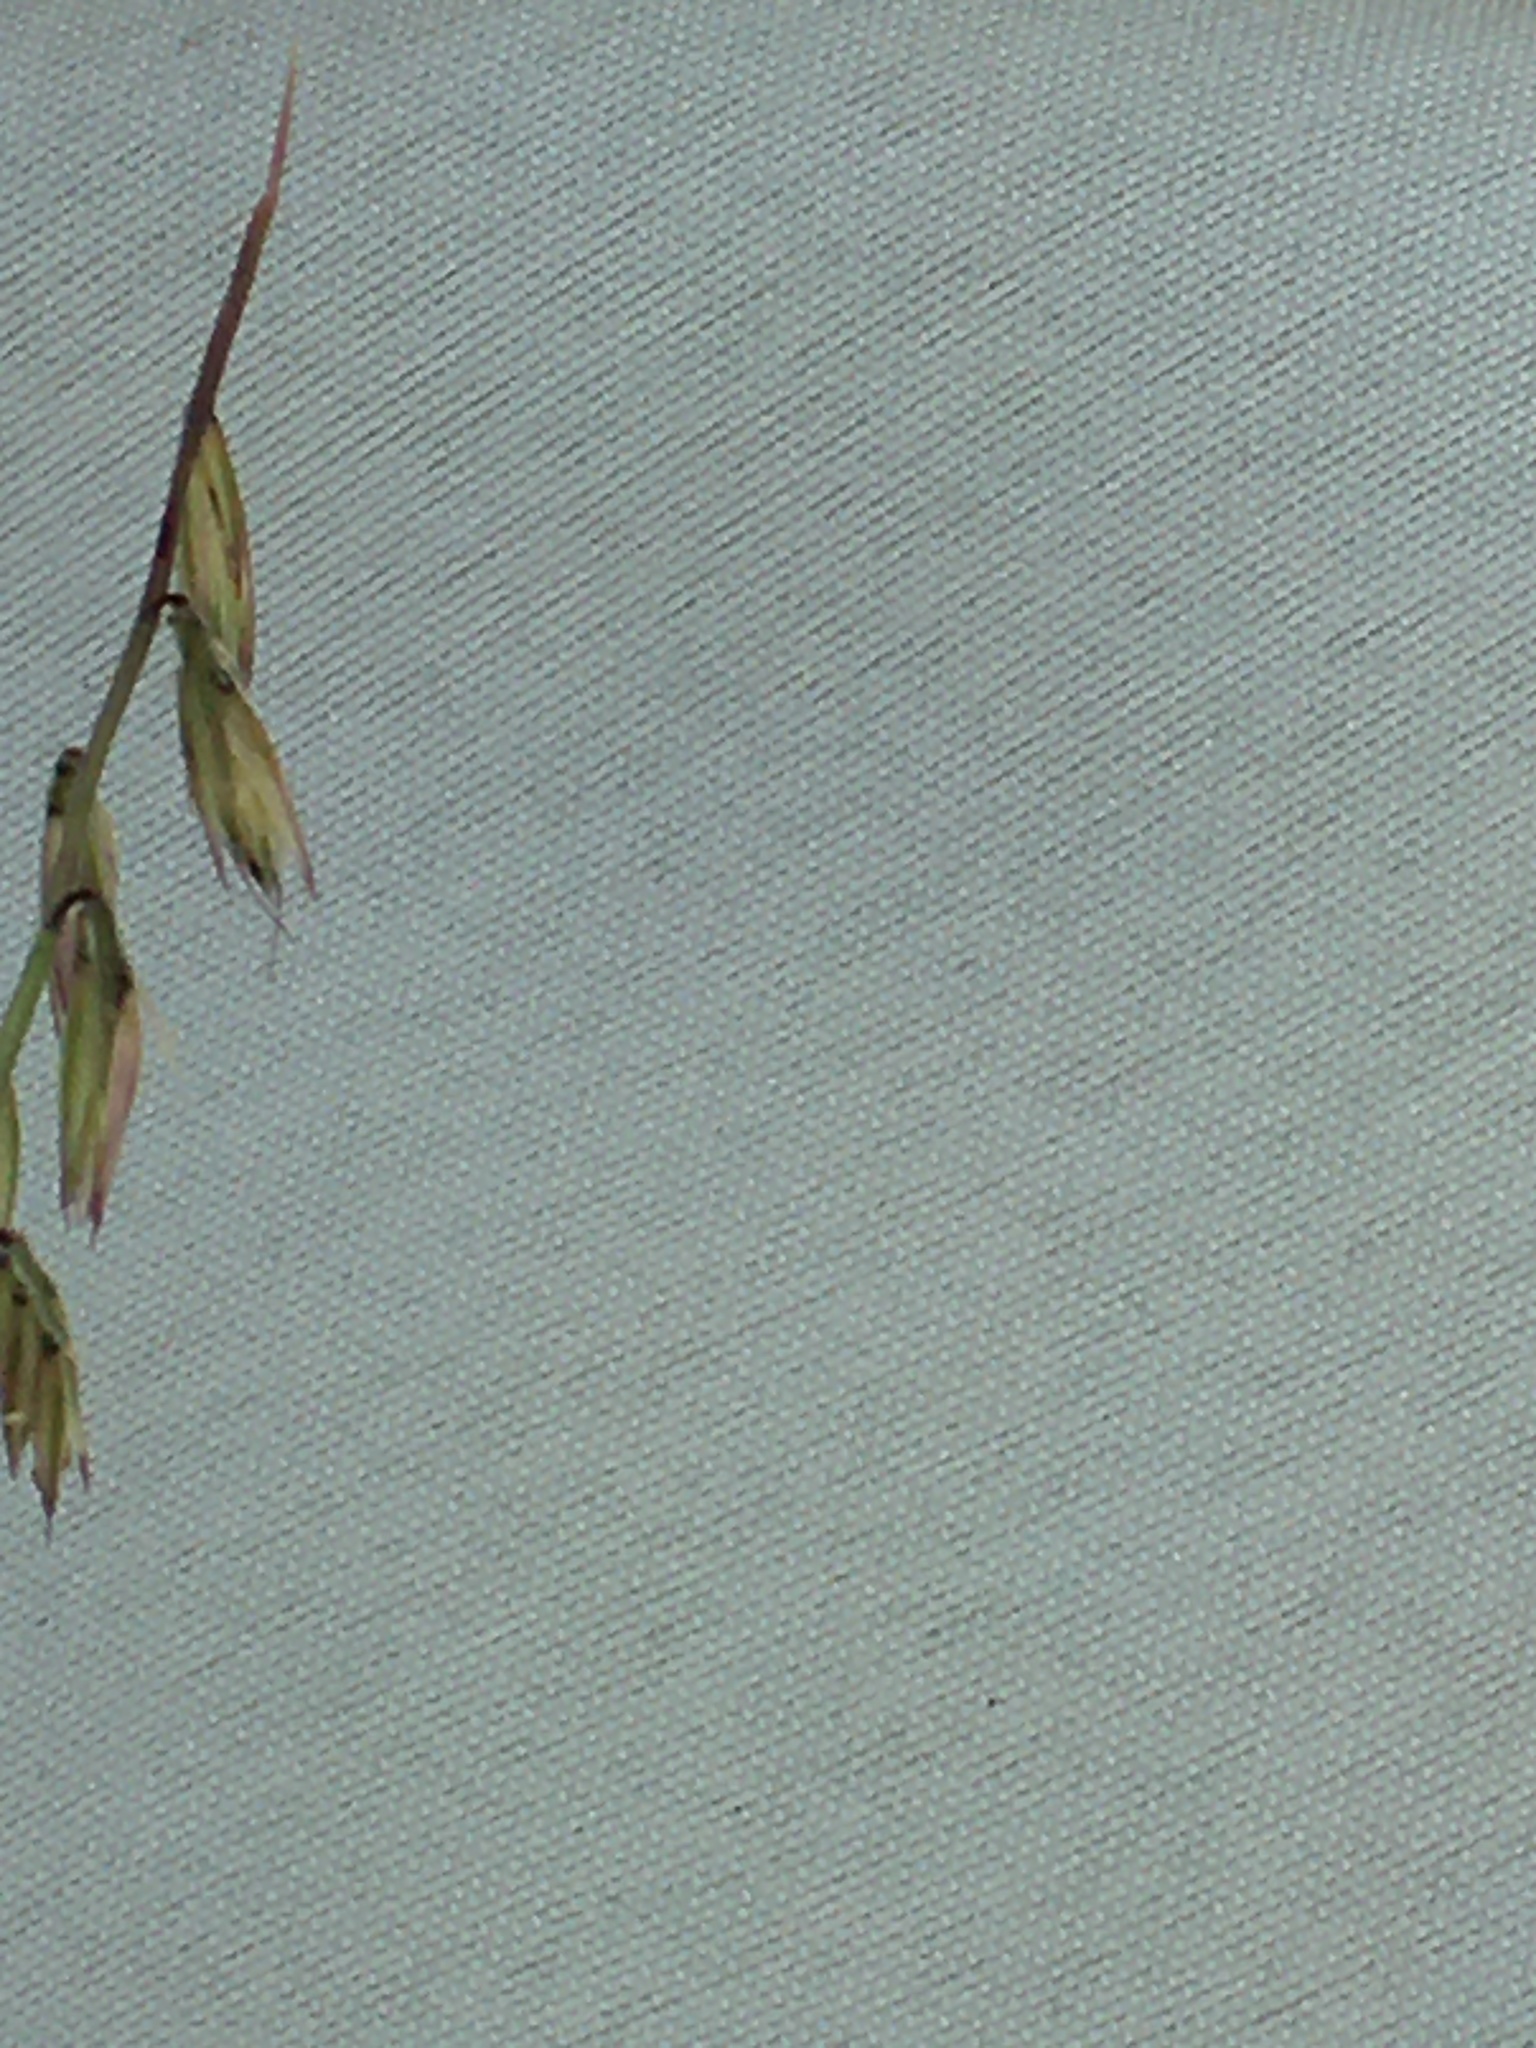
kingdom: Plantae
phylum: Tracheophyta
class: Liliopsida
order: Poales
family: Poaceae
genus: Bouteloua
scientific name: Bouteloua curtipendula
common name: Side-oats grama
